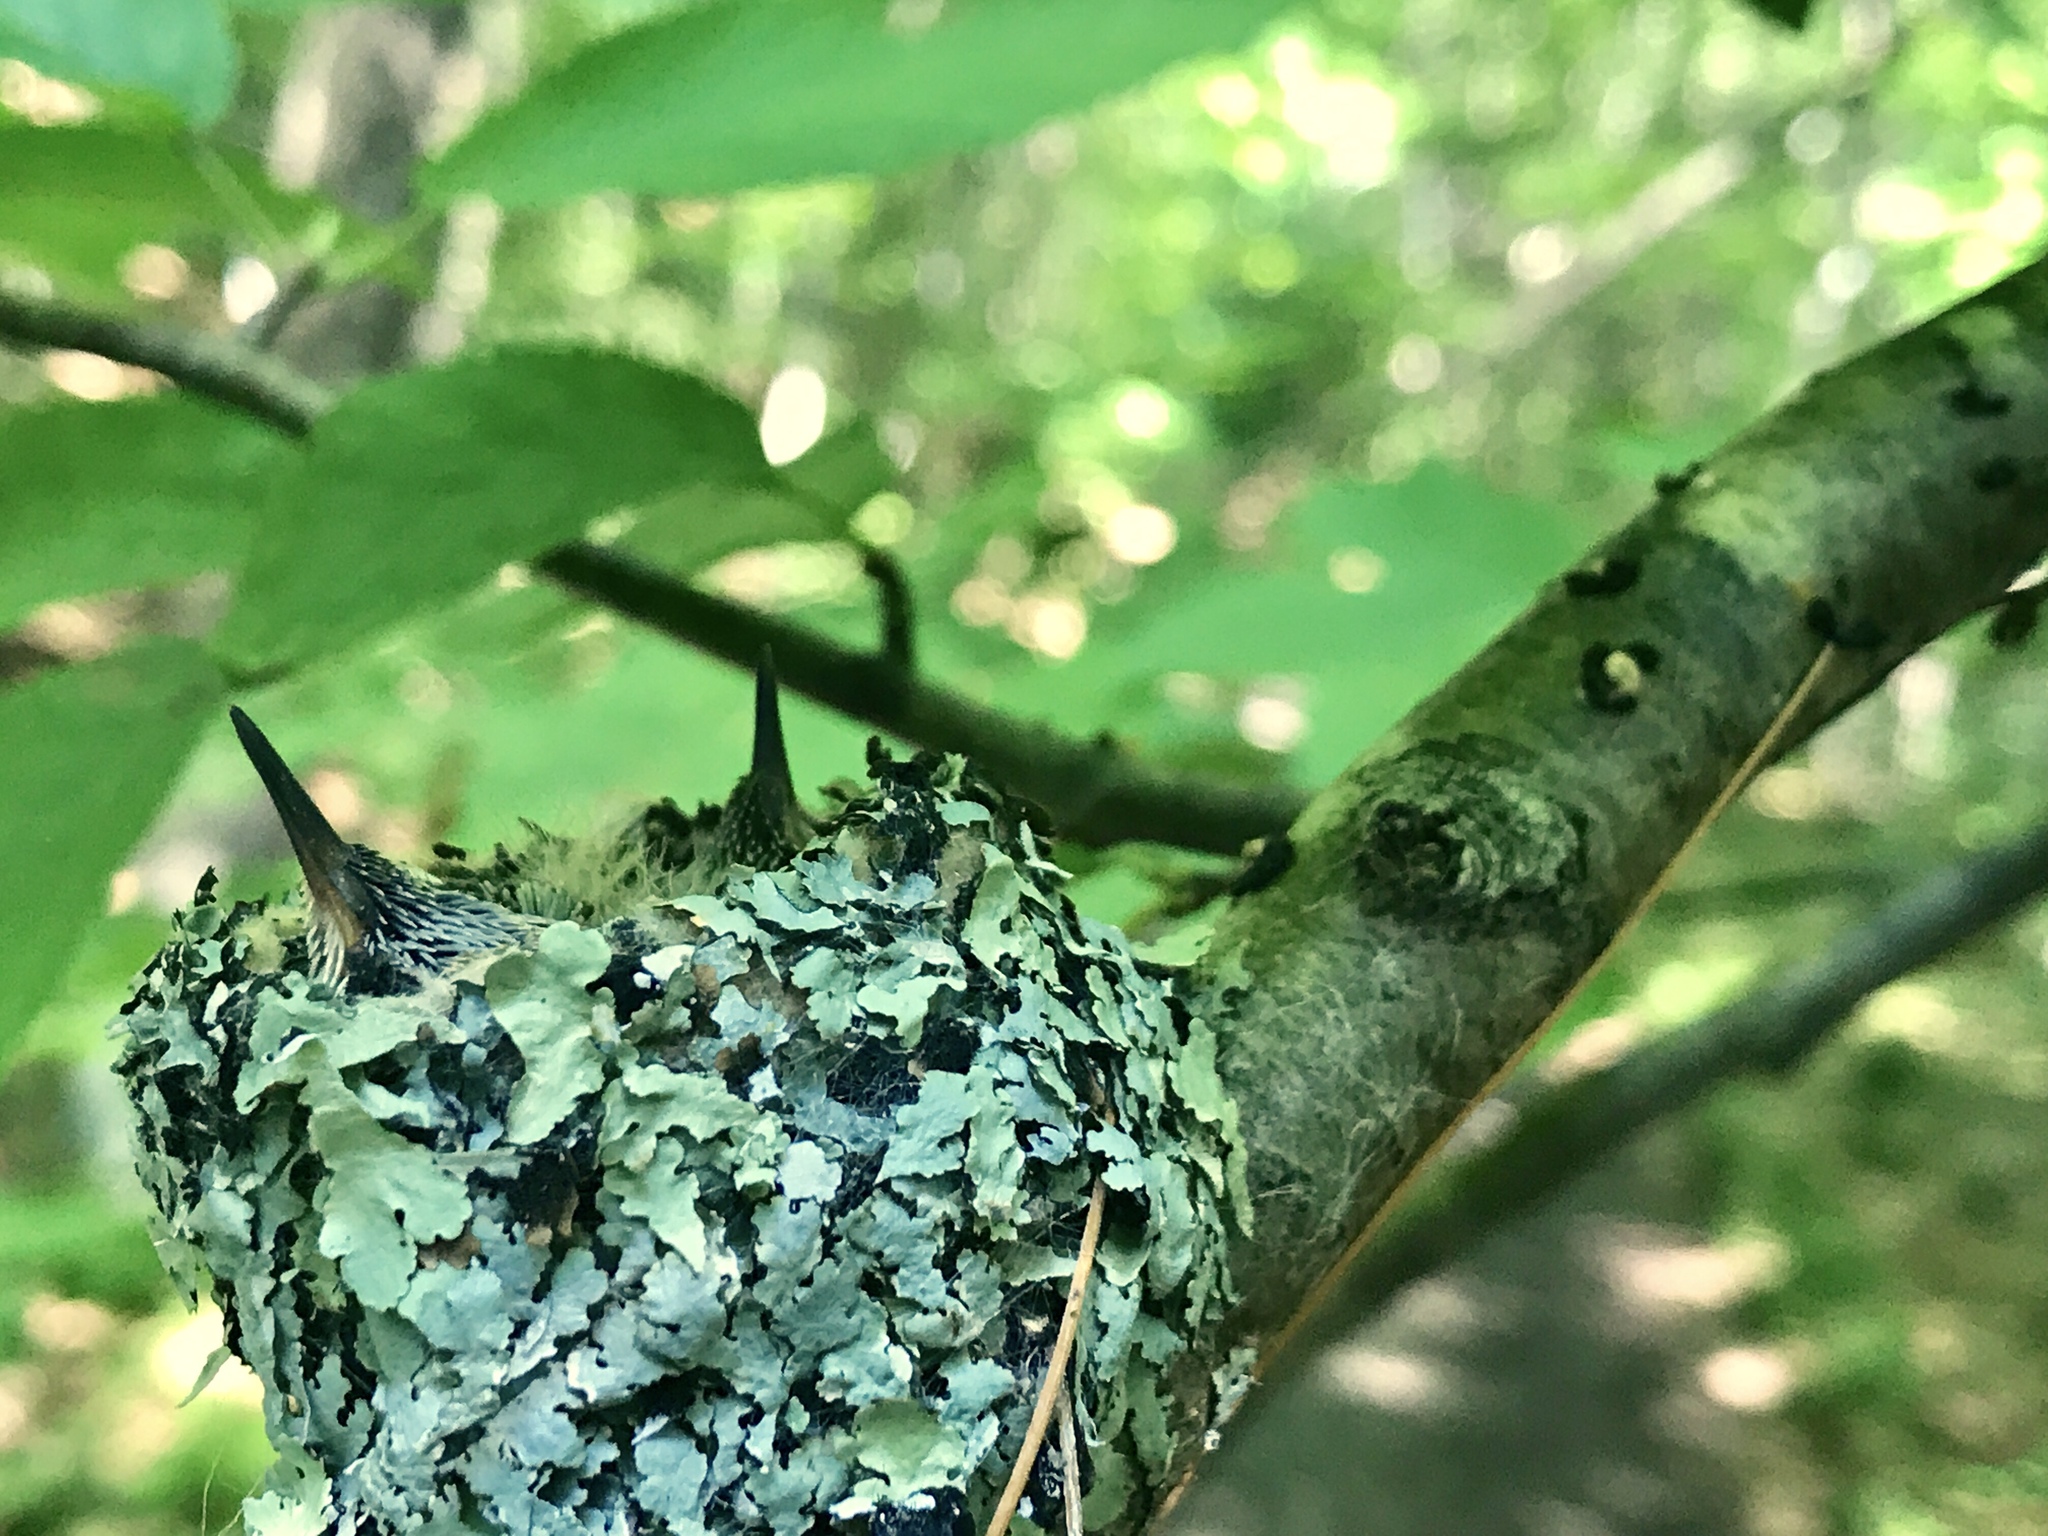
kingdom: Animalia
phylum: Chordata
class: Aves
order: Apodiformes
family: Trochilidae
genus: Archilochus
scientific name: Archilochus colubris
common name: Ruby-throated hummingbird
